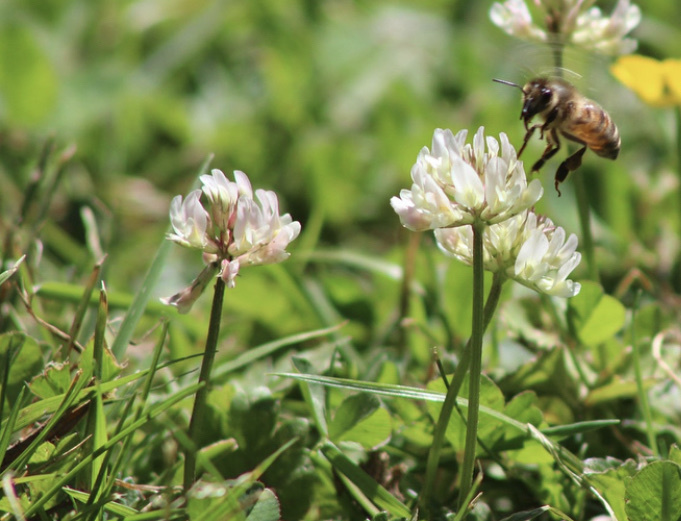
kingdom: Plantae
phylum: Tracheophyta
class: Magnoliopsida
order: Fabales
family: Fabaceae
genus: Trifolium
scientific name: Trifolium repens
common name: White clover
